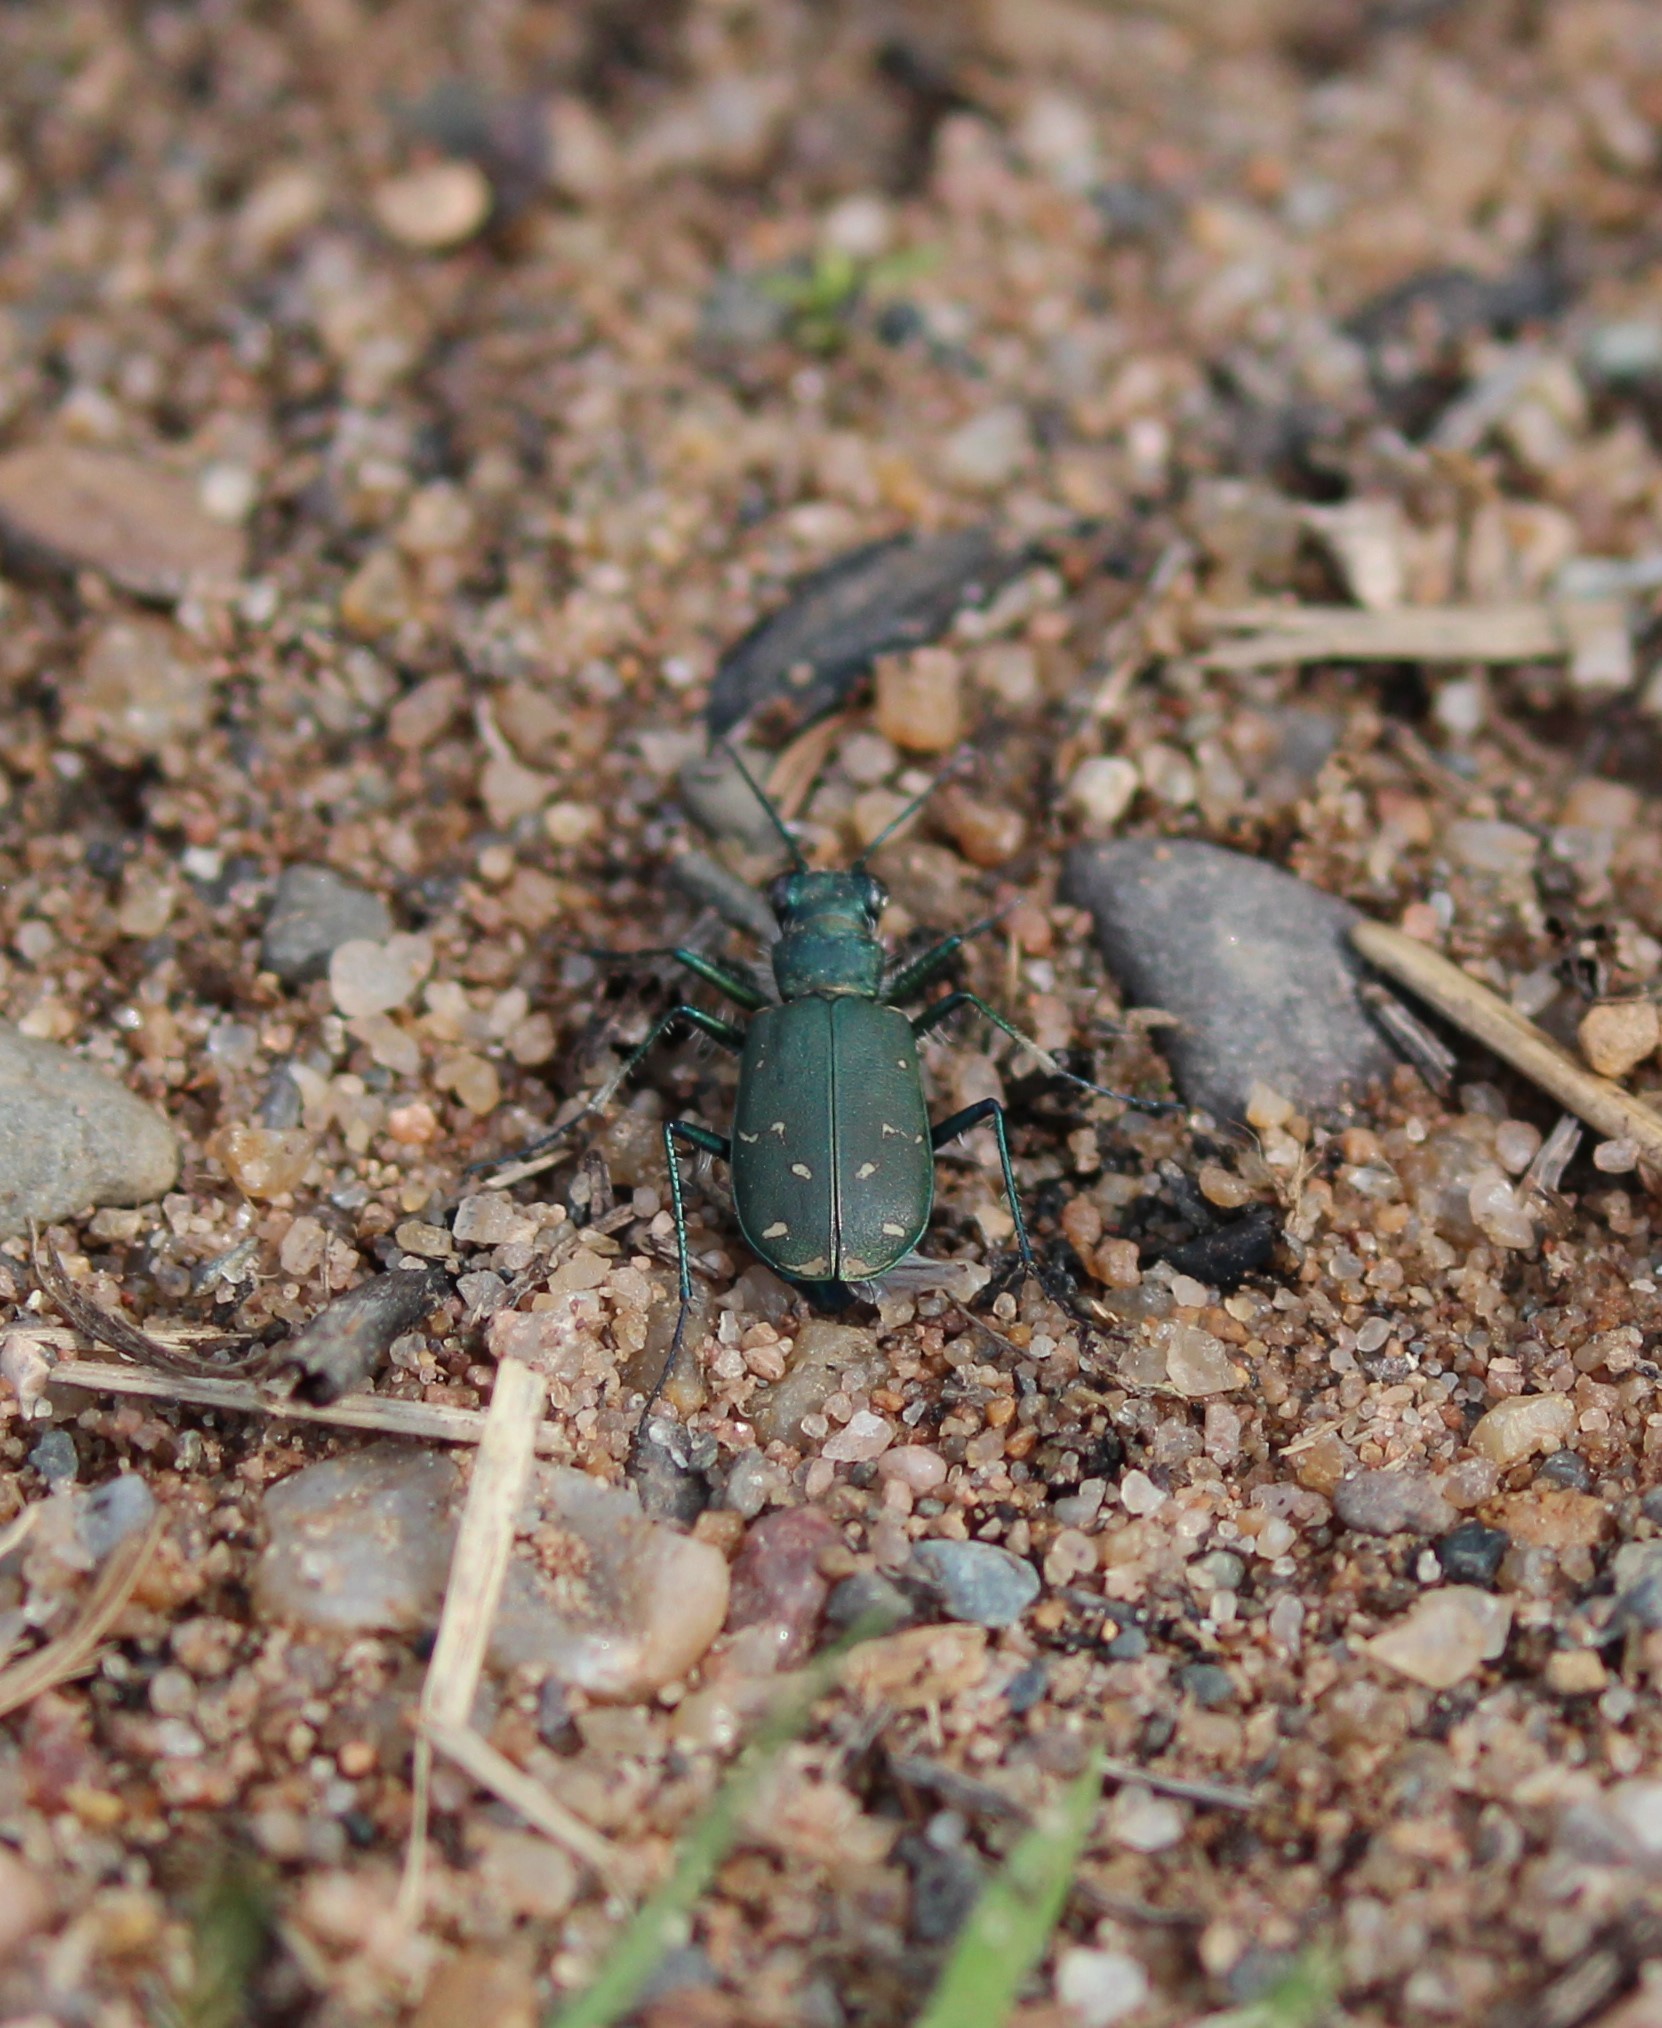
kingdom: Animalia
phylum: Arthropoda
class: Insecta
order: Coleoptera
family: Carabidae
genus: Cicindela
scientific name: Cicindela duodecimguttata
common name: Twelve-spotted tiger beetle
